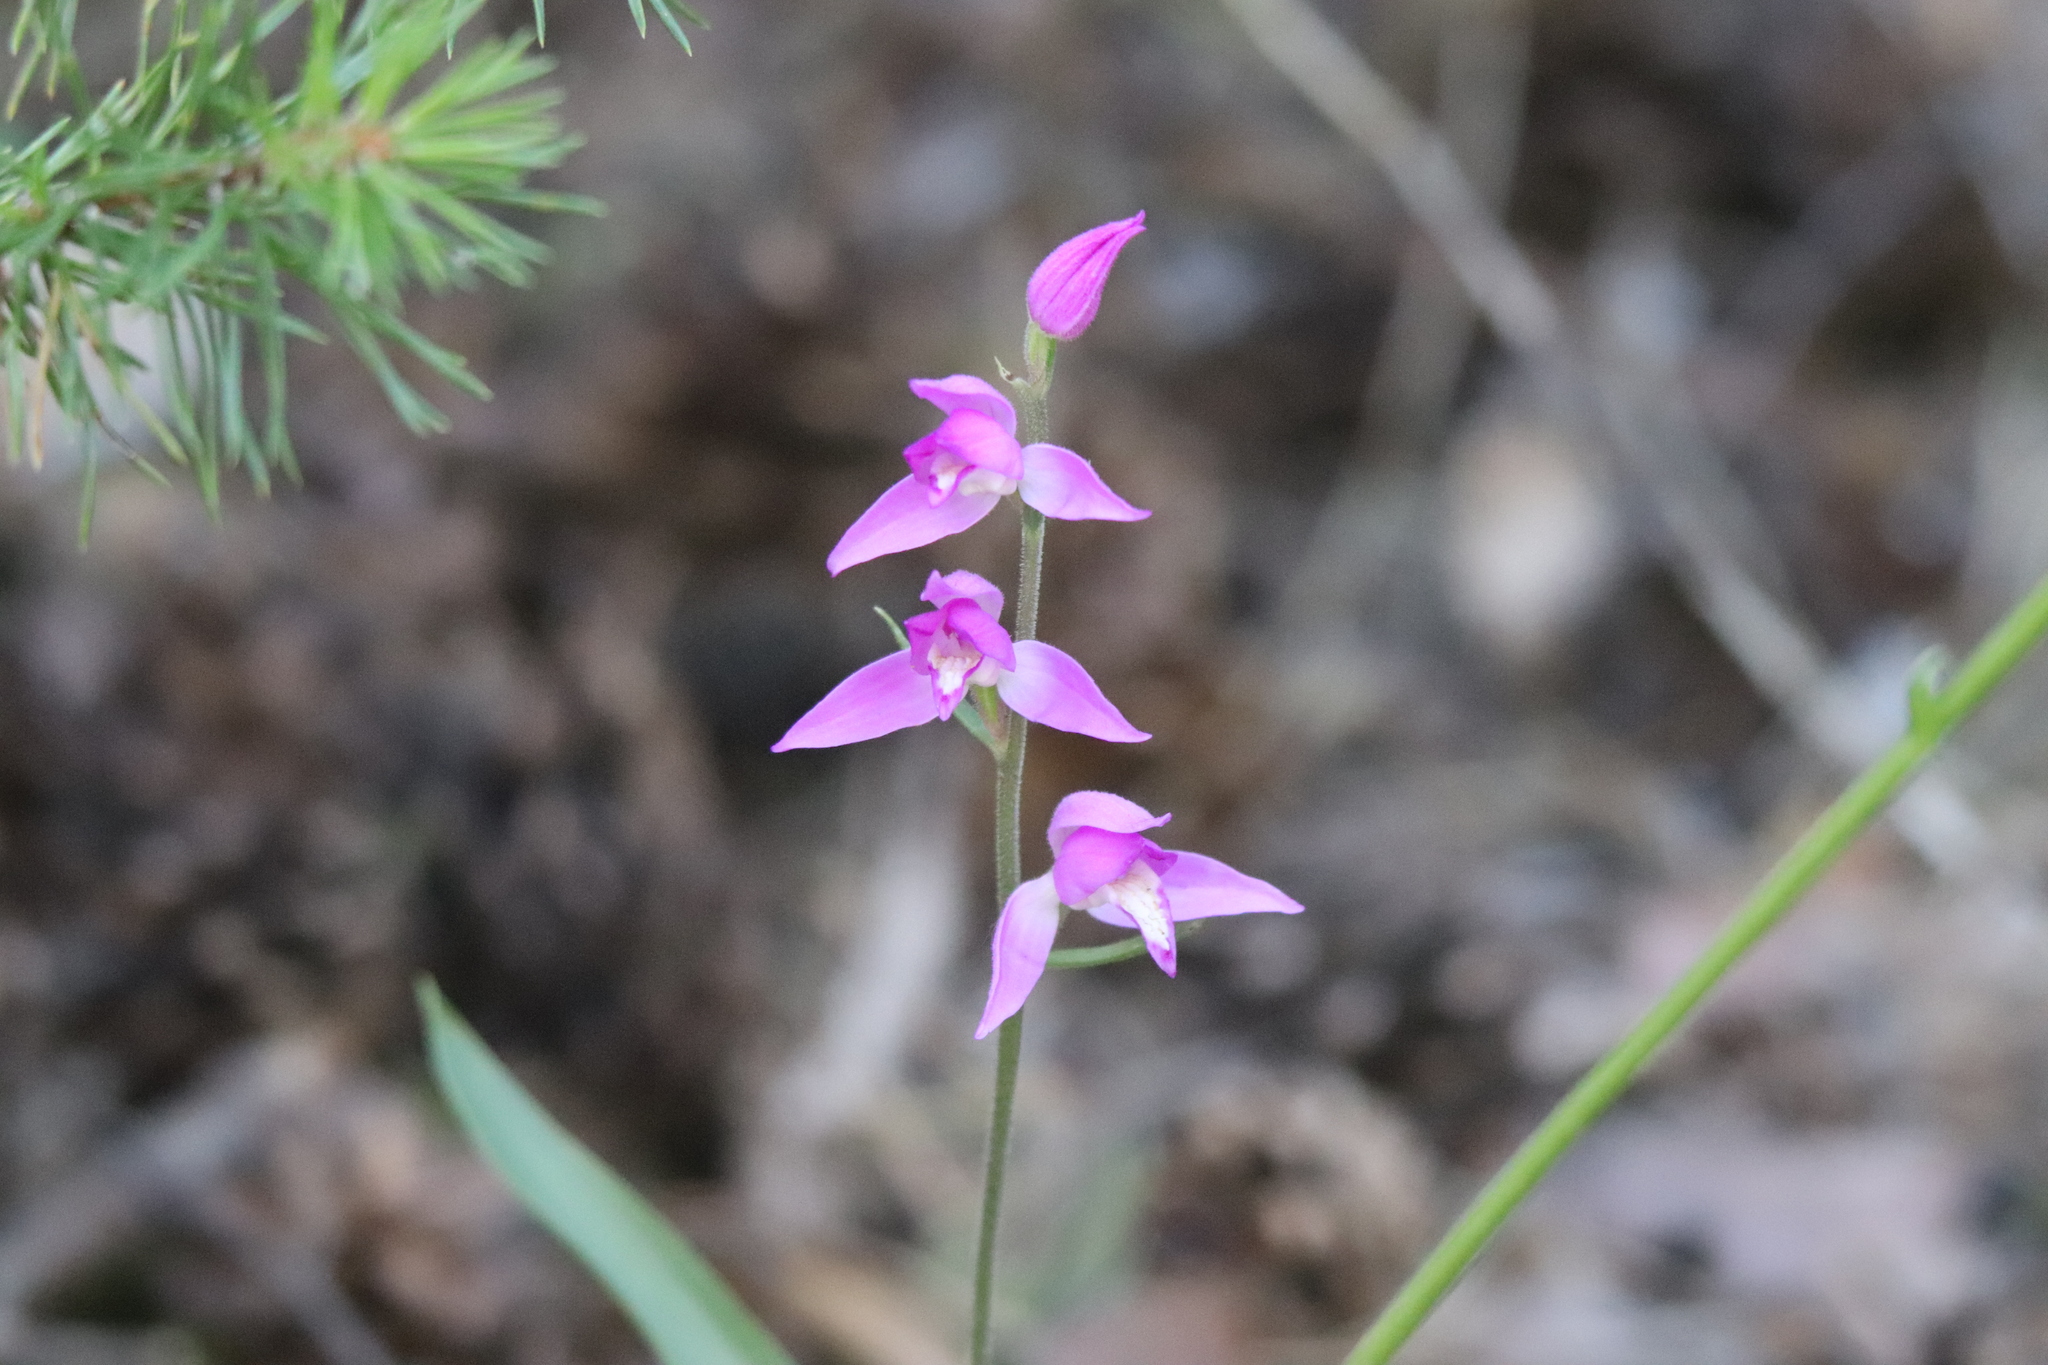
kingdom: Plantae
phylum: Tracheophyta
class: Liliopsida
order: Asparagales
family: Orchidaceae
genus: Cephalanthera
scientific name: Cephalanthera rubra
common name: Red helleborine
